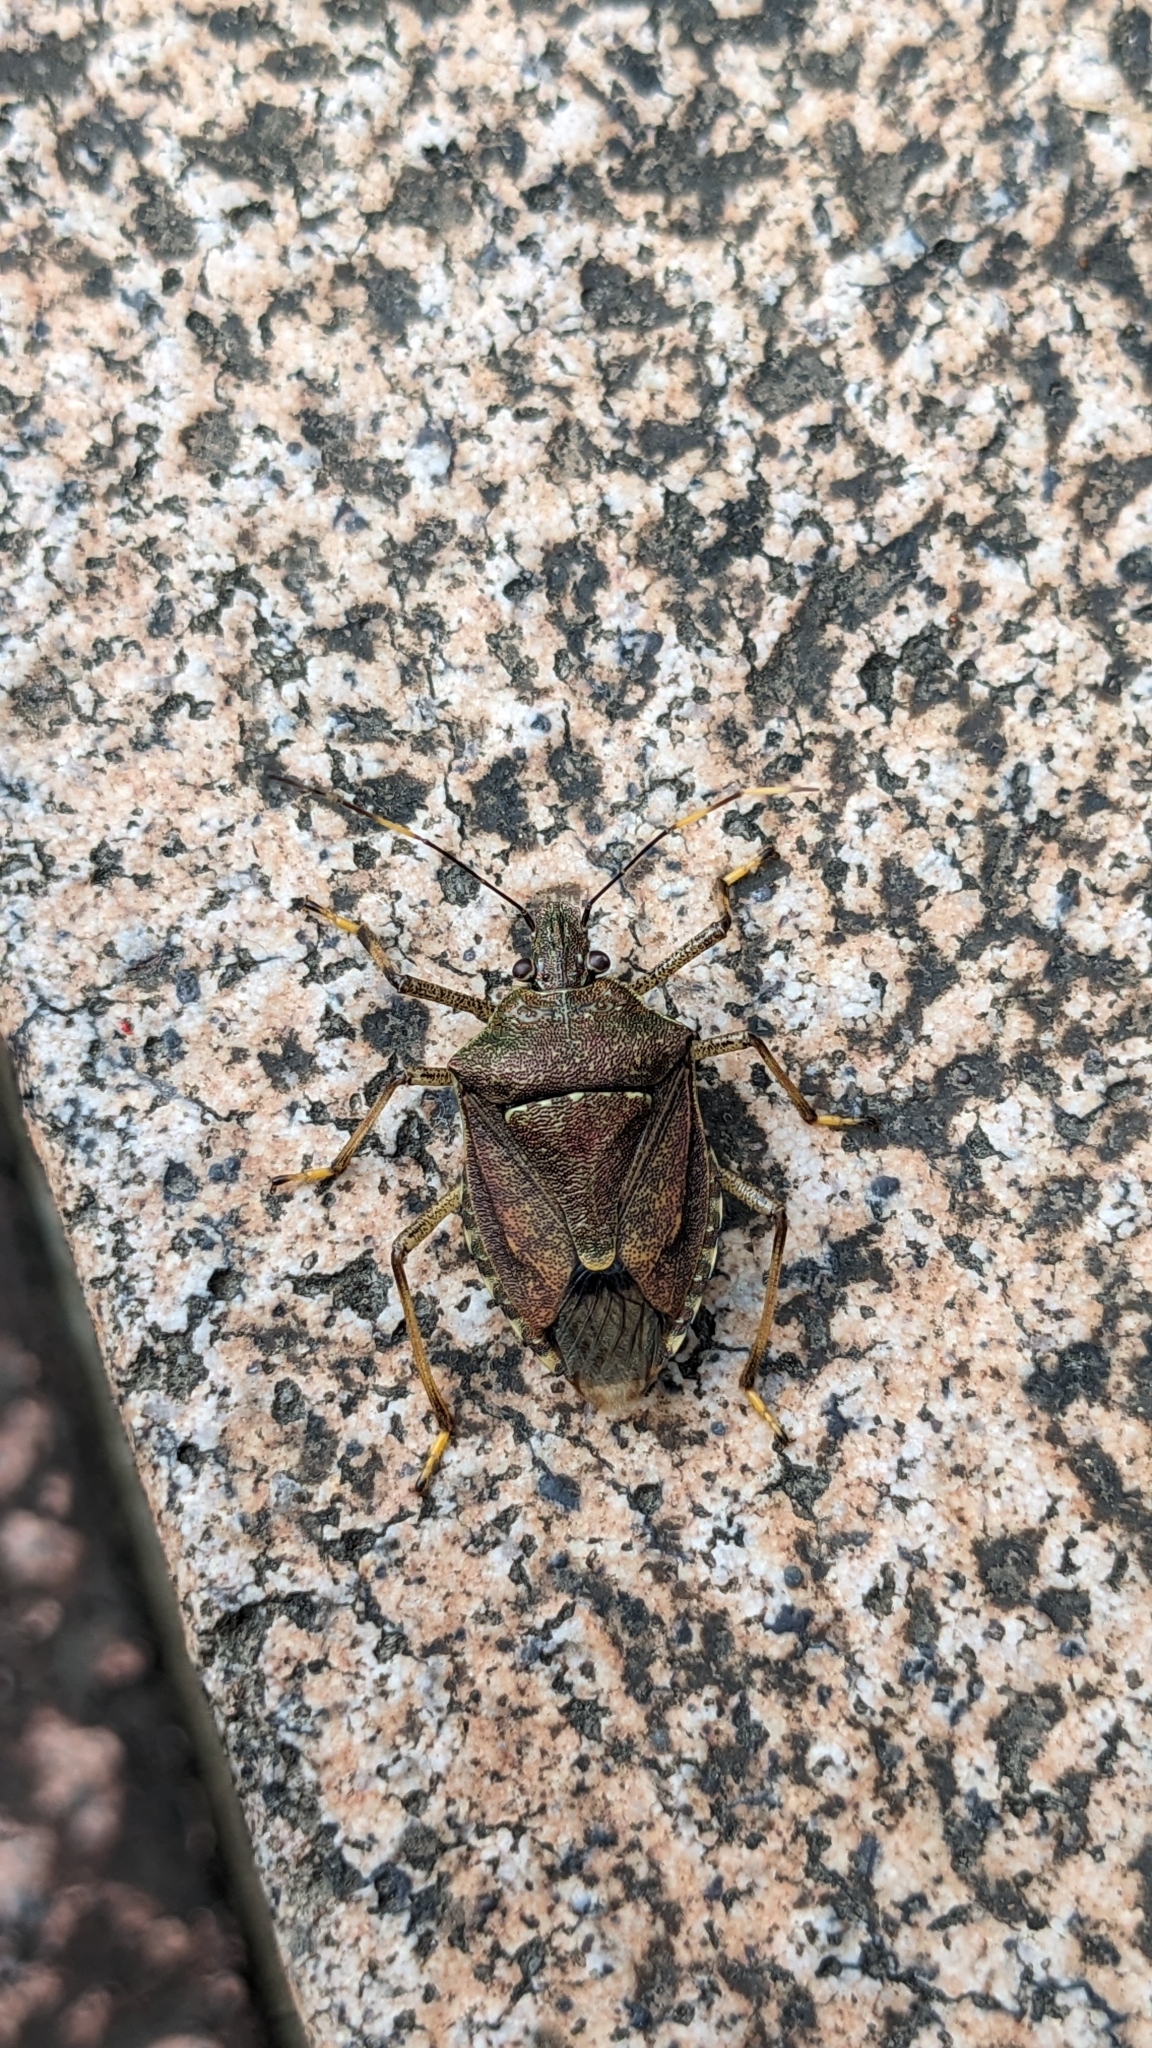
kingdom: Animalia
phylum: Arthropoda
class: Insecta
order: Hemiptera
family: Pentatomidae
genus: Halyomorpha
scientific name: Halyomorpha halys
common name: Brown marmorated stink bug
